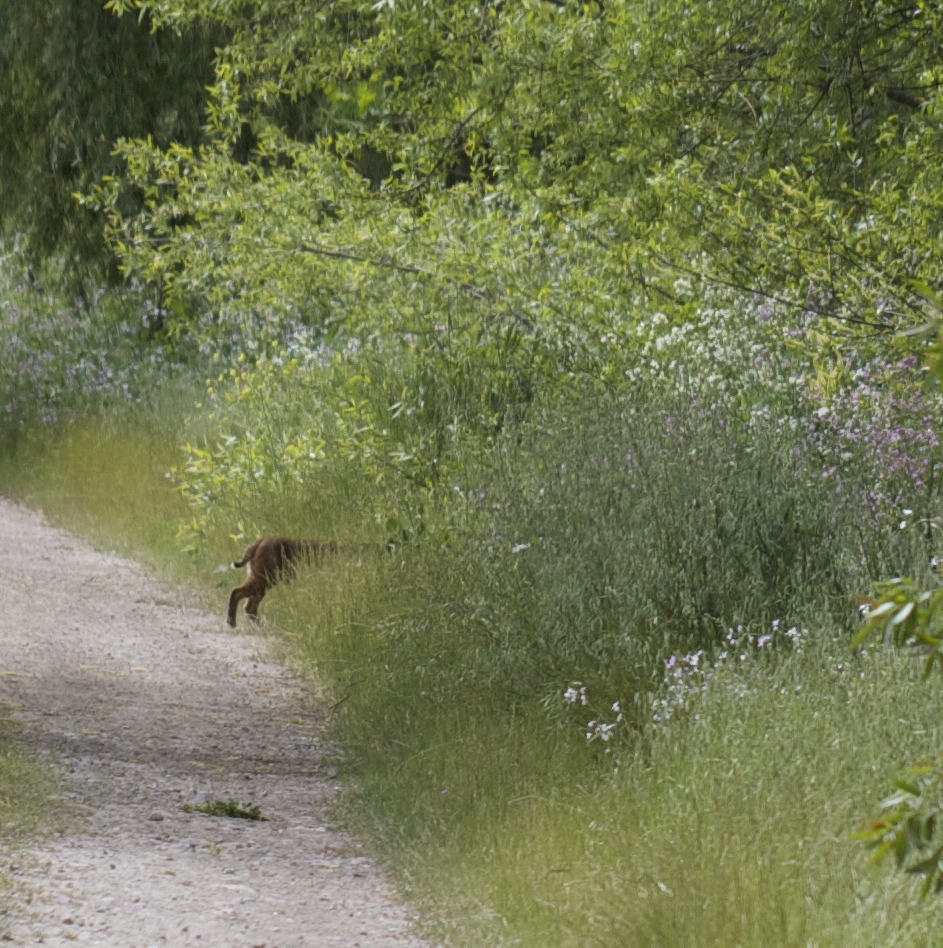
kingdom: Animalia
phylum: Chordata
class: Mammalia
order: Carnivora
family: Felidae
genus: Lynx
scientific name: Lynx rufus
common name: Bobcat
